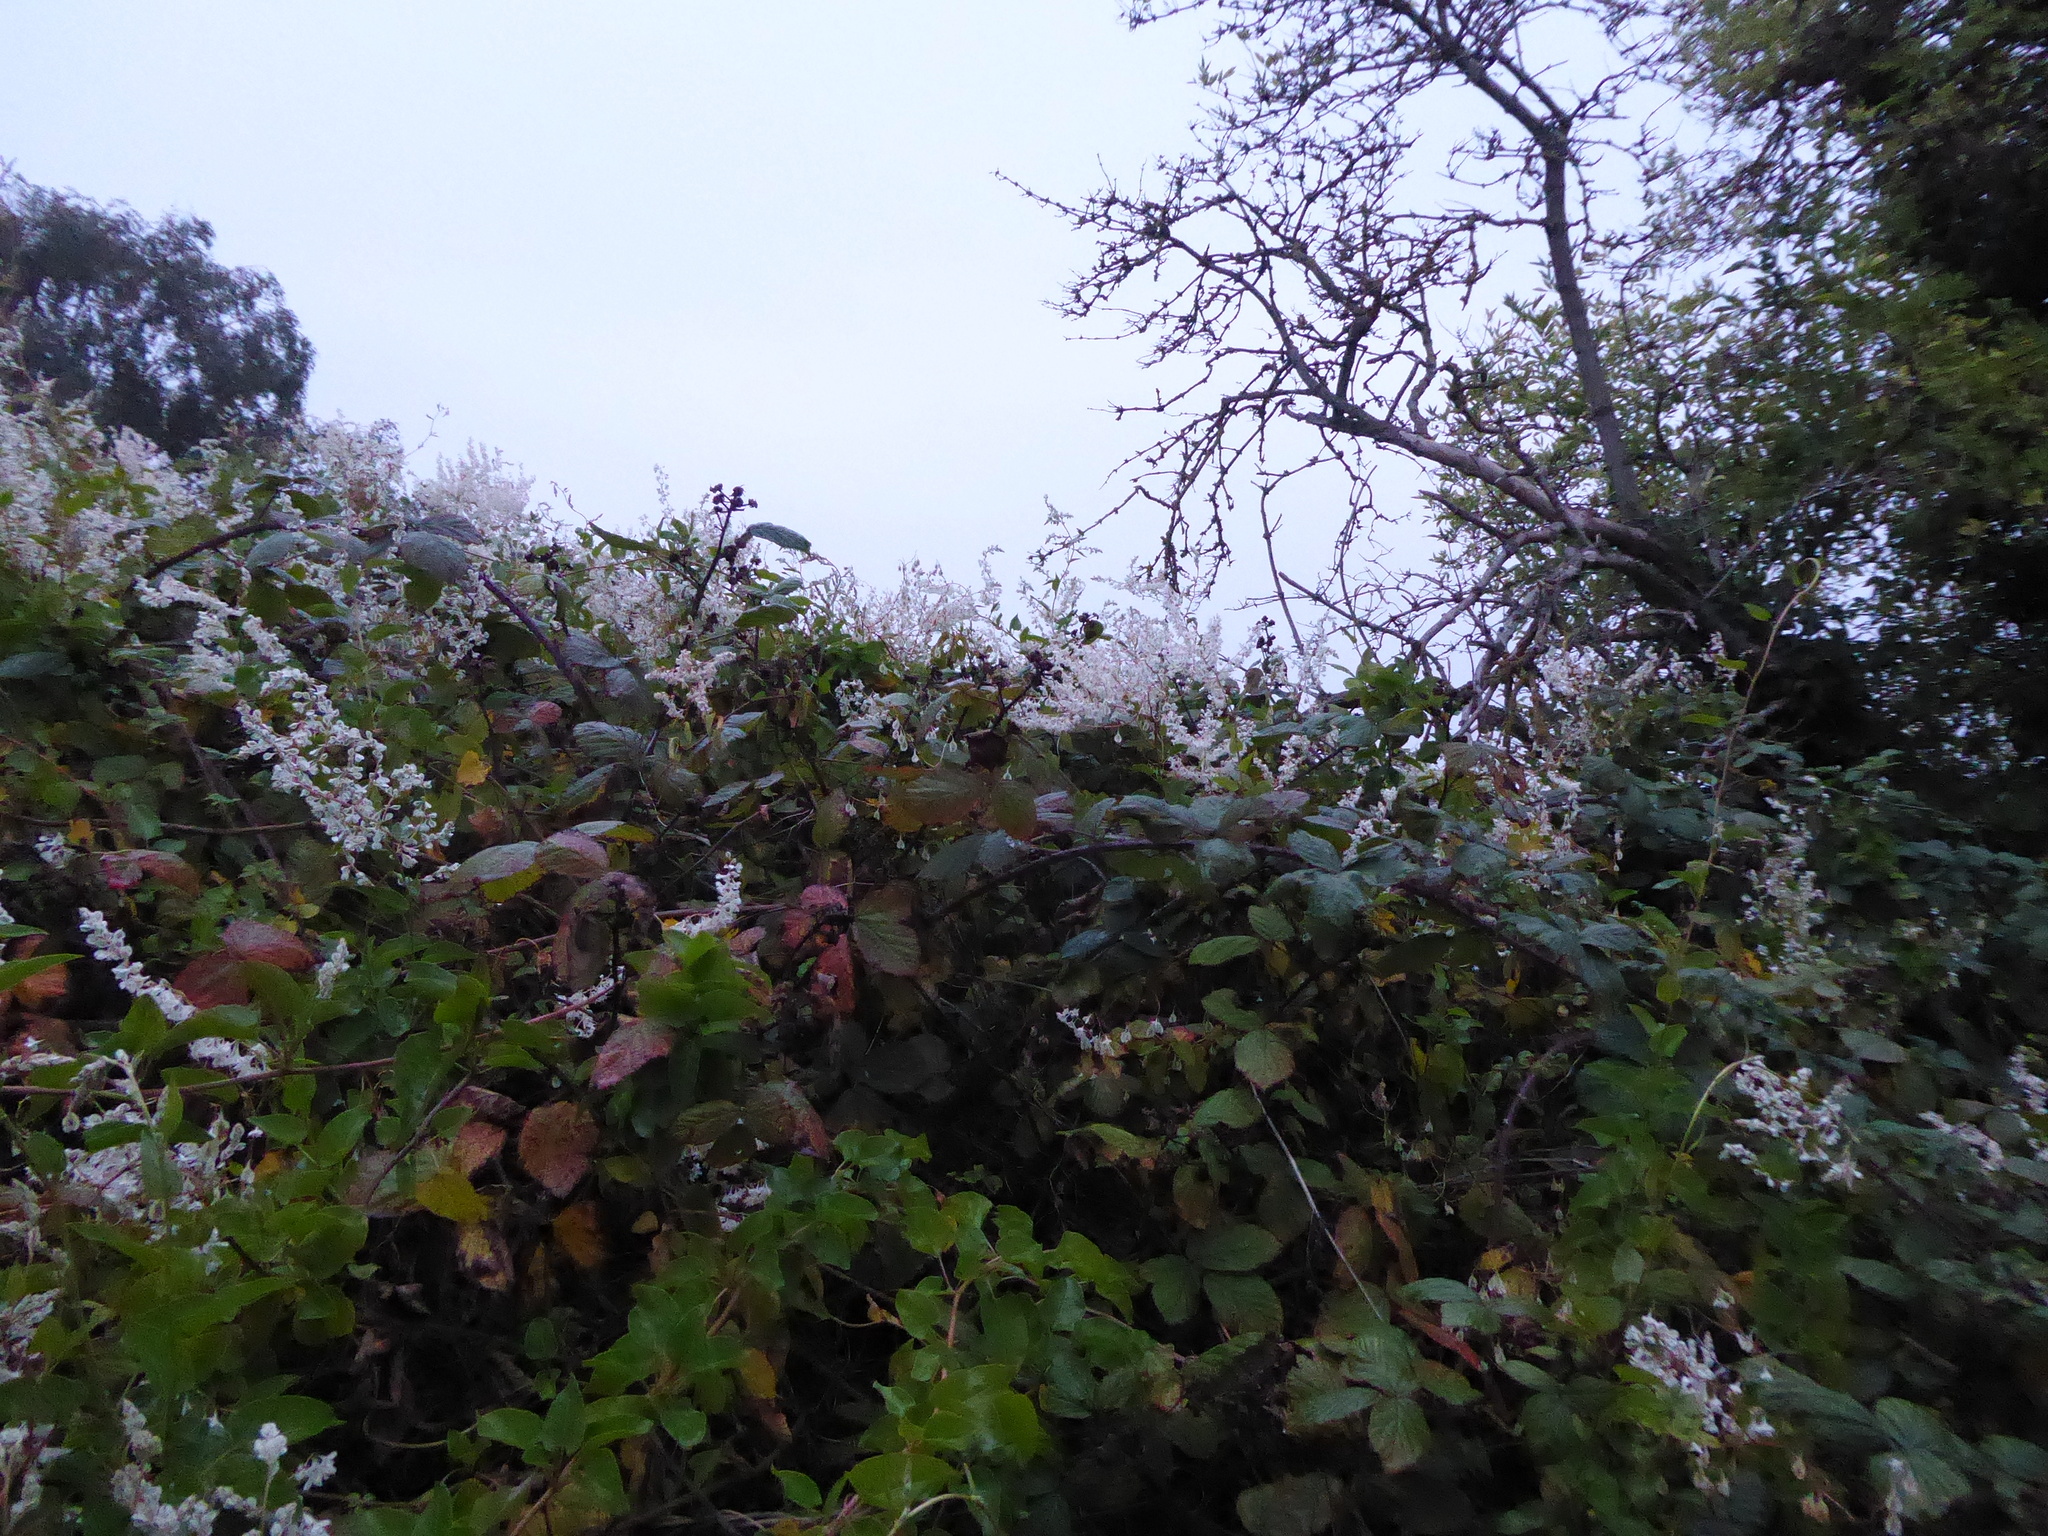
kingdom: Plantae
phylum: Tracheophyta
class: Magnoliopsida
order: Caryophyllales
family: Polygonaceae
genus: Fallopia
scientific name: Fallopia baldschuanica
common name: Russian-vine
